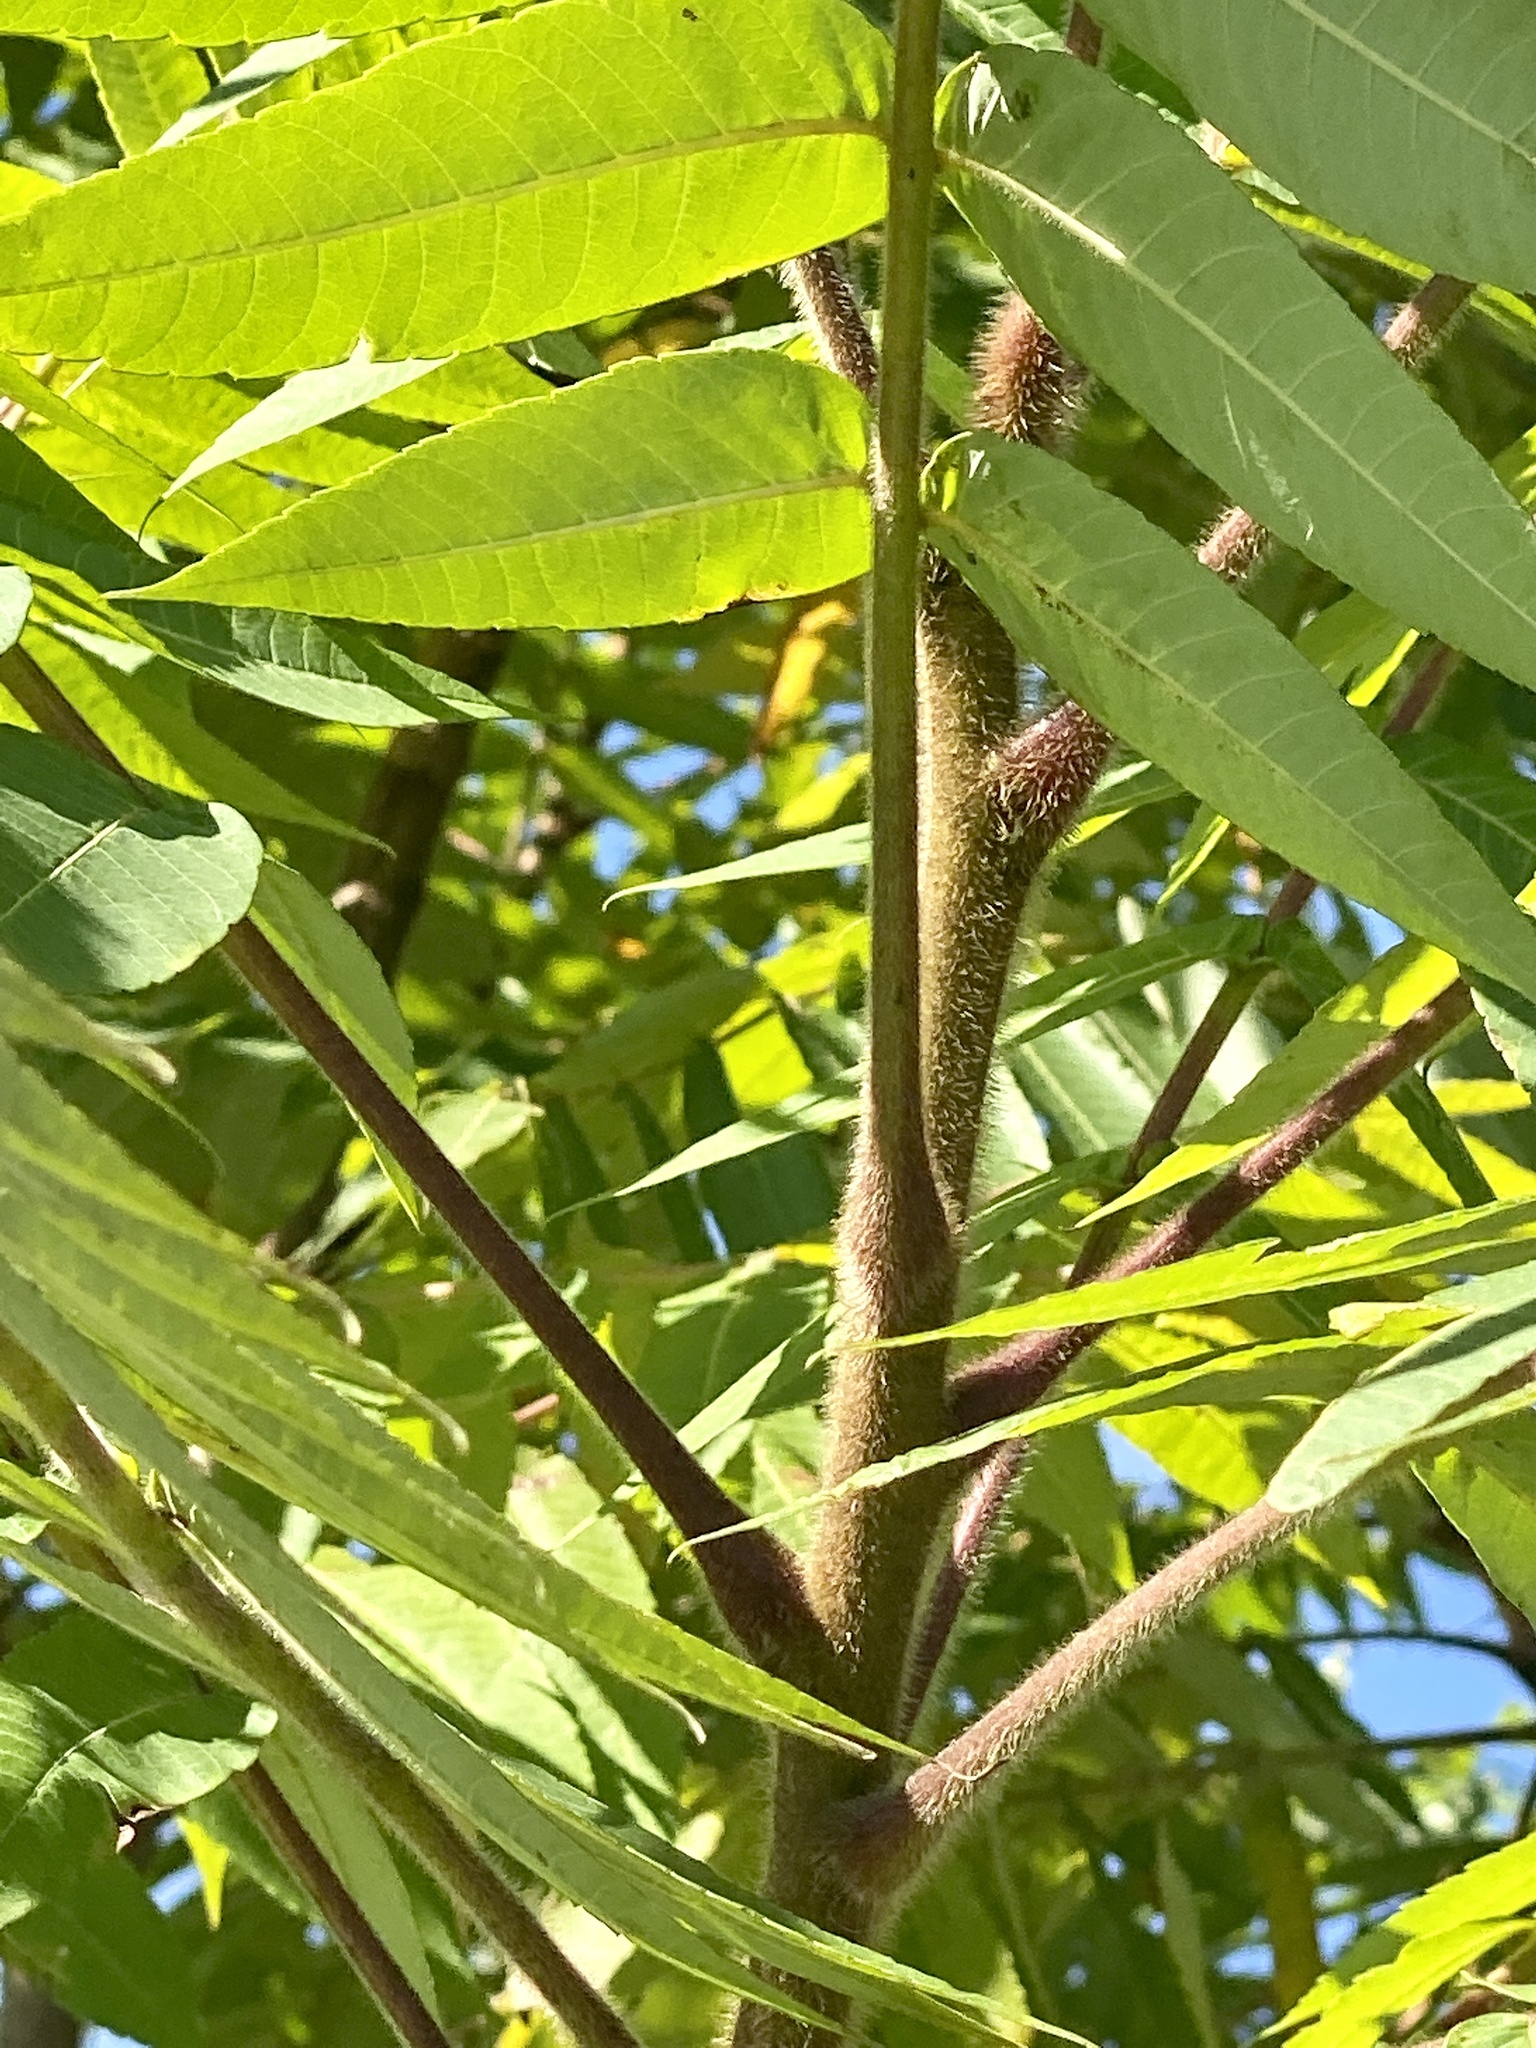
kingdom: Plantae
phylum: Tracheophyta
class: Magnoliopsida
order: Sapindales
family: Anacardiaceae
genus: Rhus
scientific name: Rhus typhina
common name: Staghorn sumac
